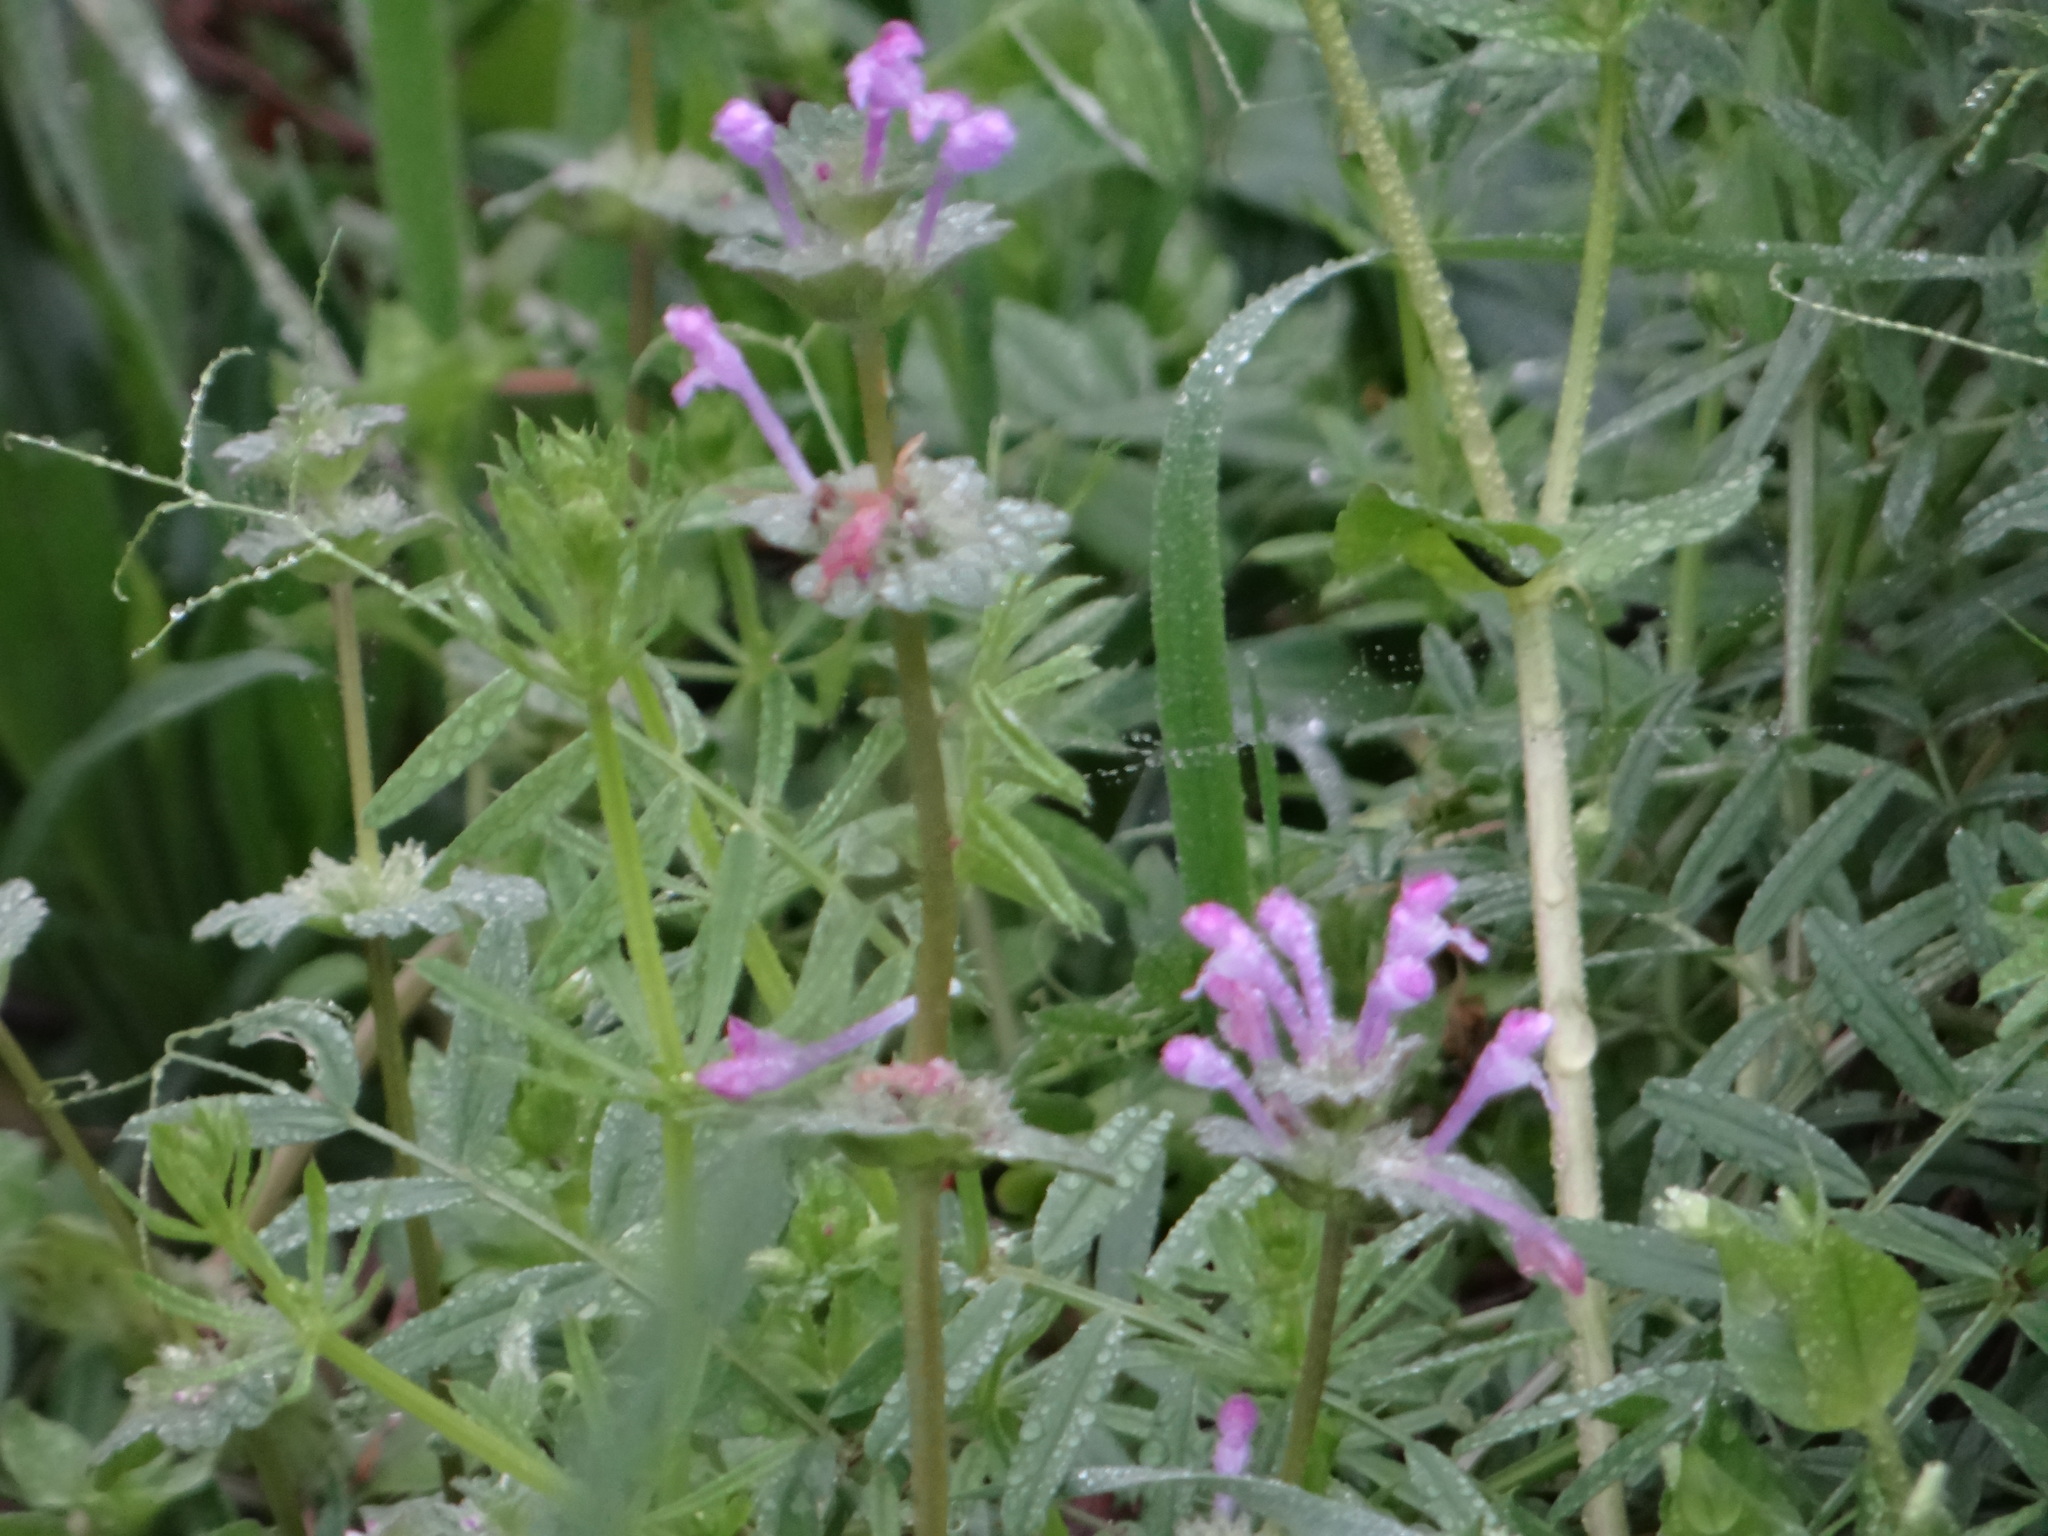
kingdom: Plantae
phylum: Tracheophyta
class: Magnoliopsida
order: Lamiales
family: Lamiaceae
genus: Lamium
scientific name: Lamium amplexicaule
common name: Henbit dead-nettle
